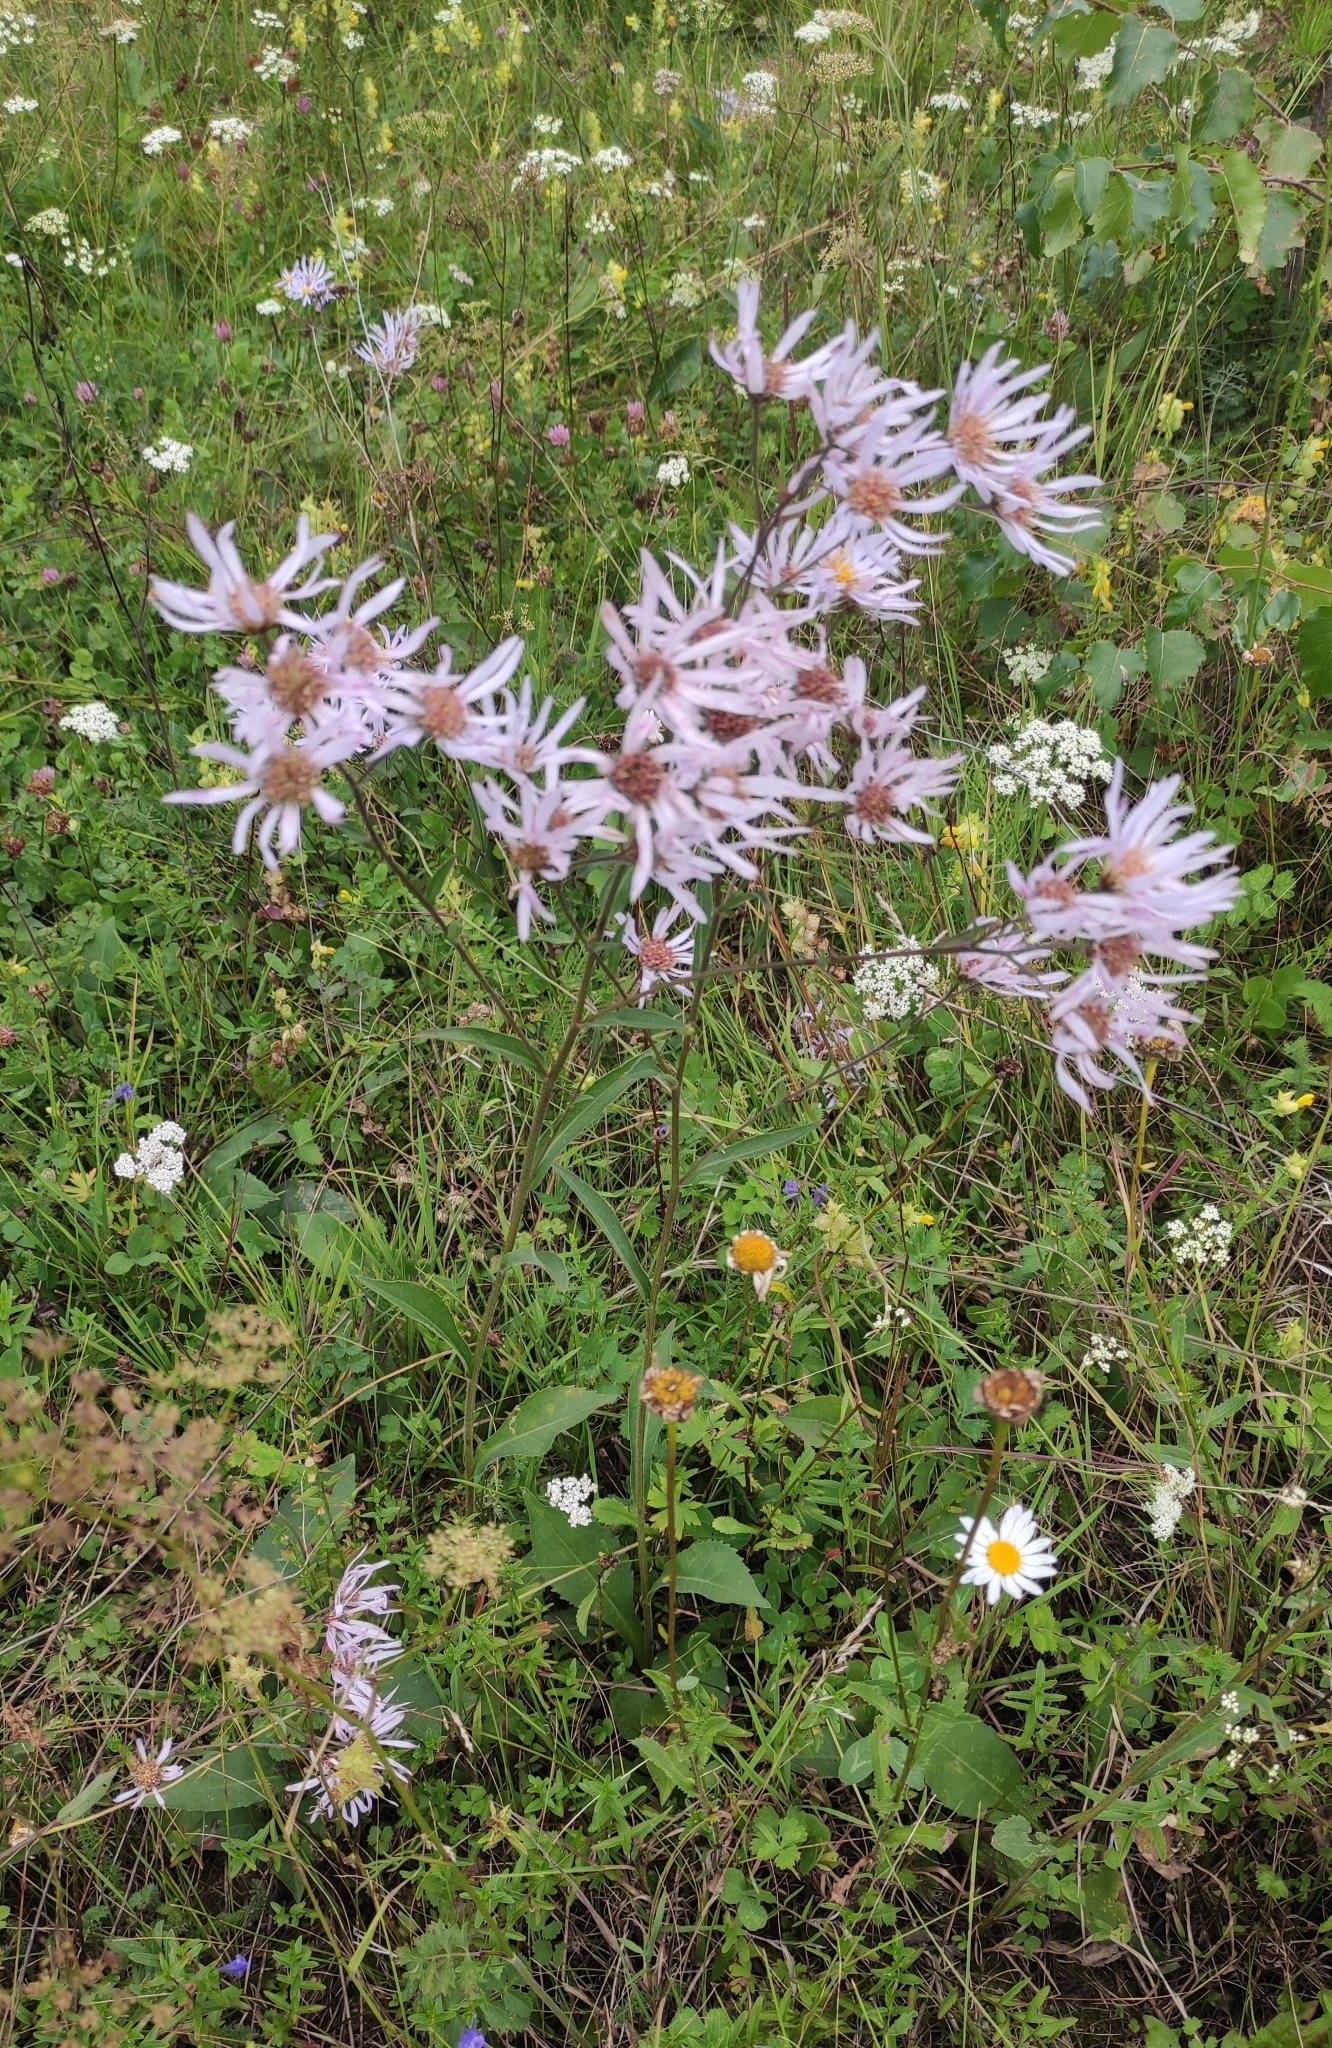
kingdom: Plantae
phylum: Tracheophyta
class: Magnoliopsida
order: Asterales
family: Asteraceae
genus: Aster
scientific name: Aster tataricus
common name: Tatarian aster
